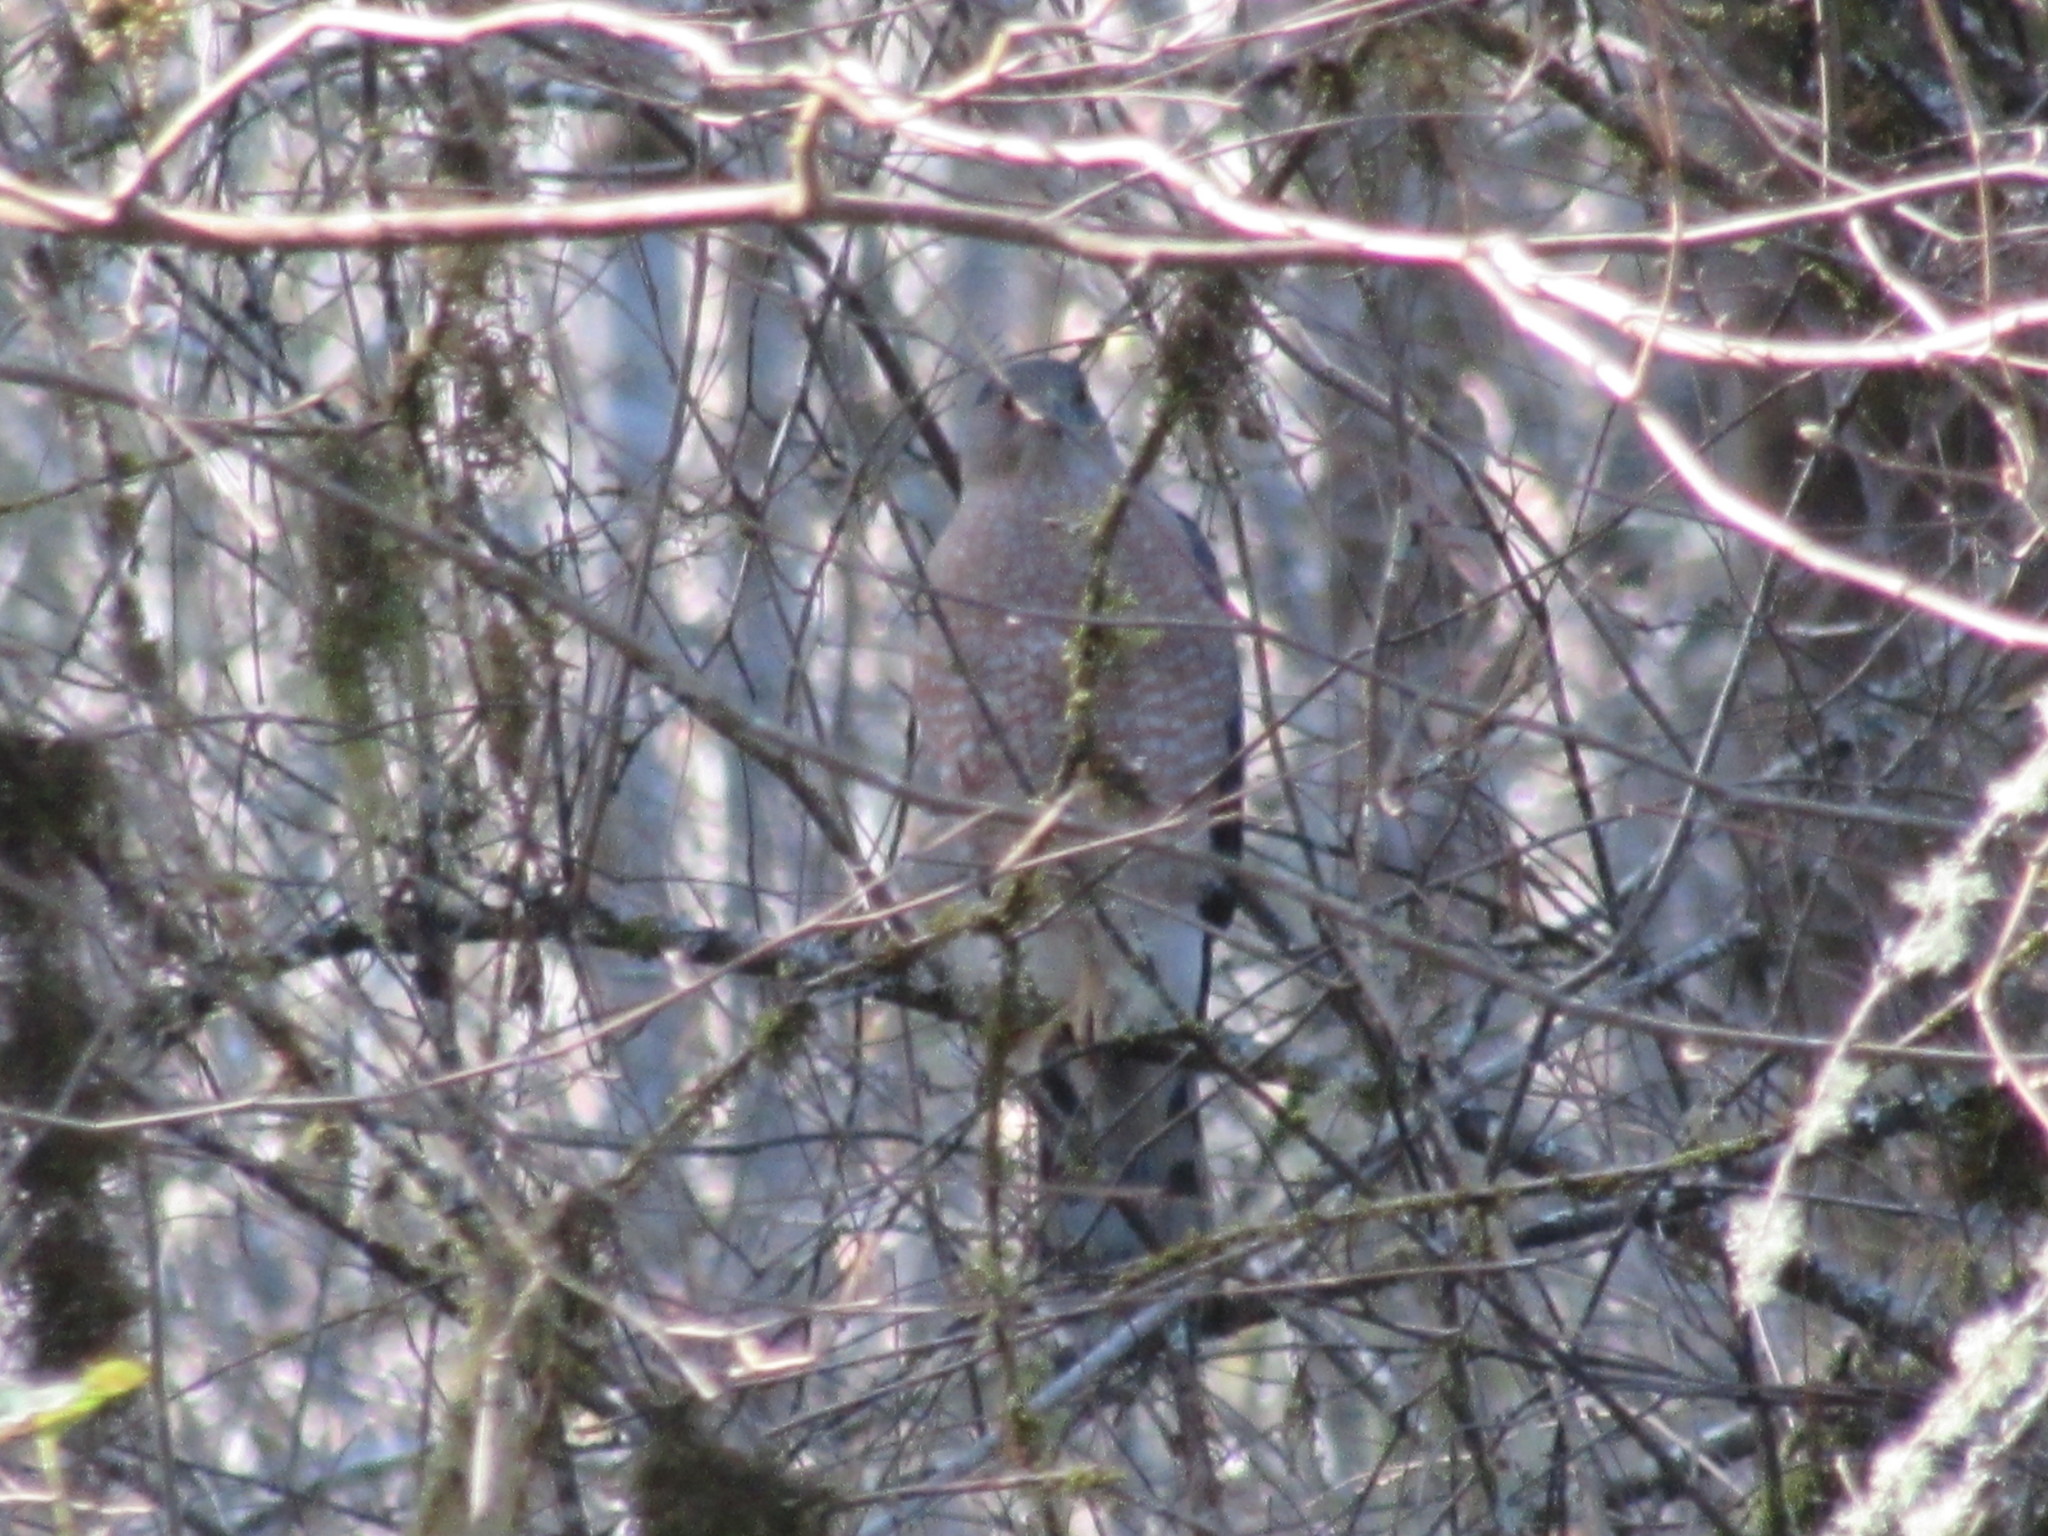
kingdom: Animalia
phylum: Chordata
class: Aves
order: Accipitriformes
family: Accipitridae
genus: Accipiter
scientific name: Accipiter cooperii
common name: Cooper's hawk
